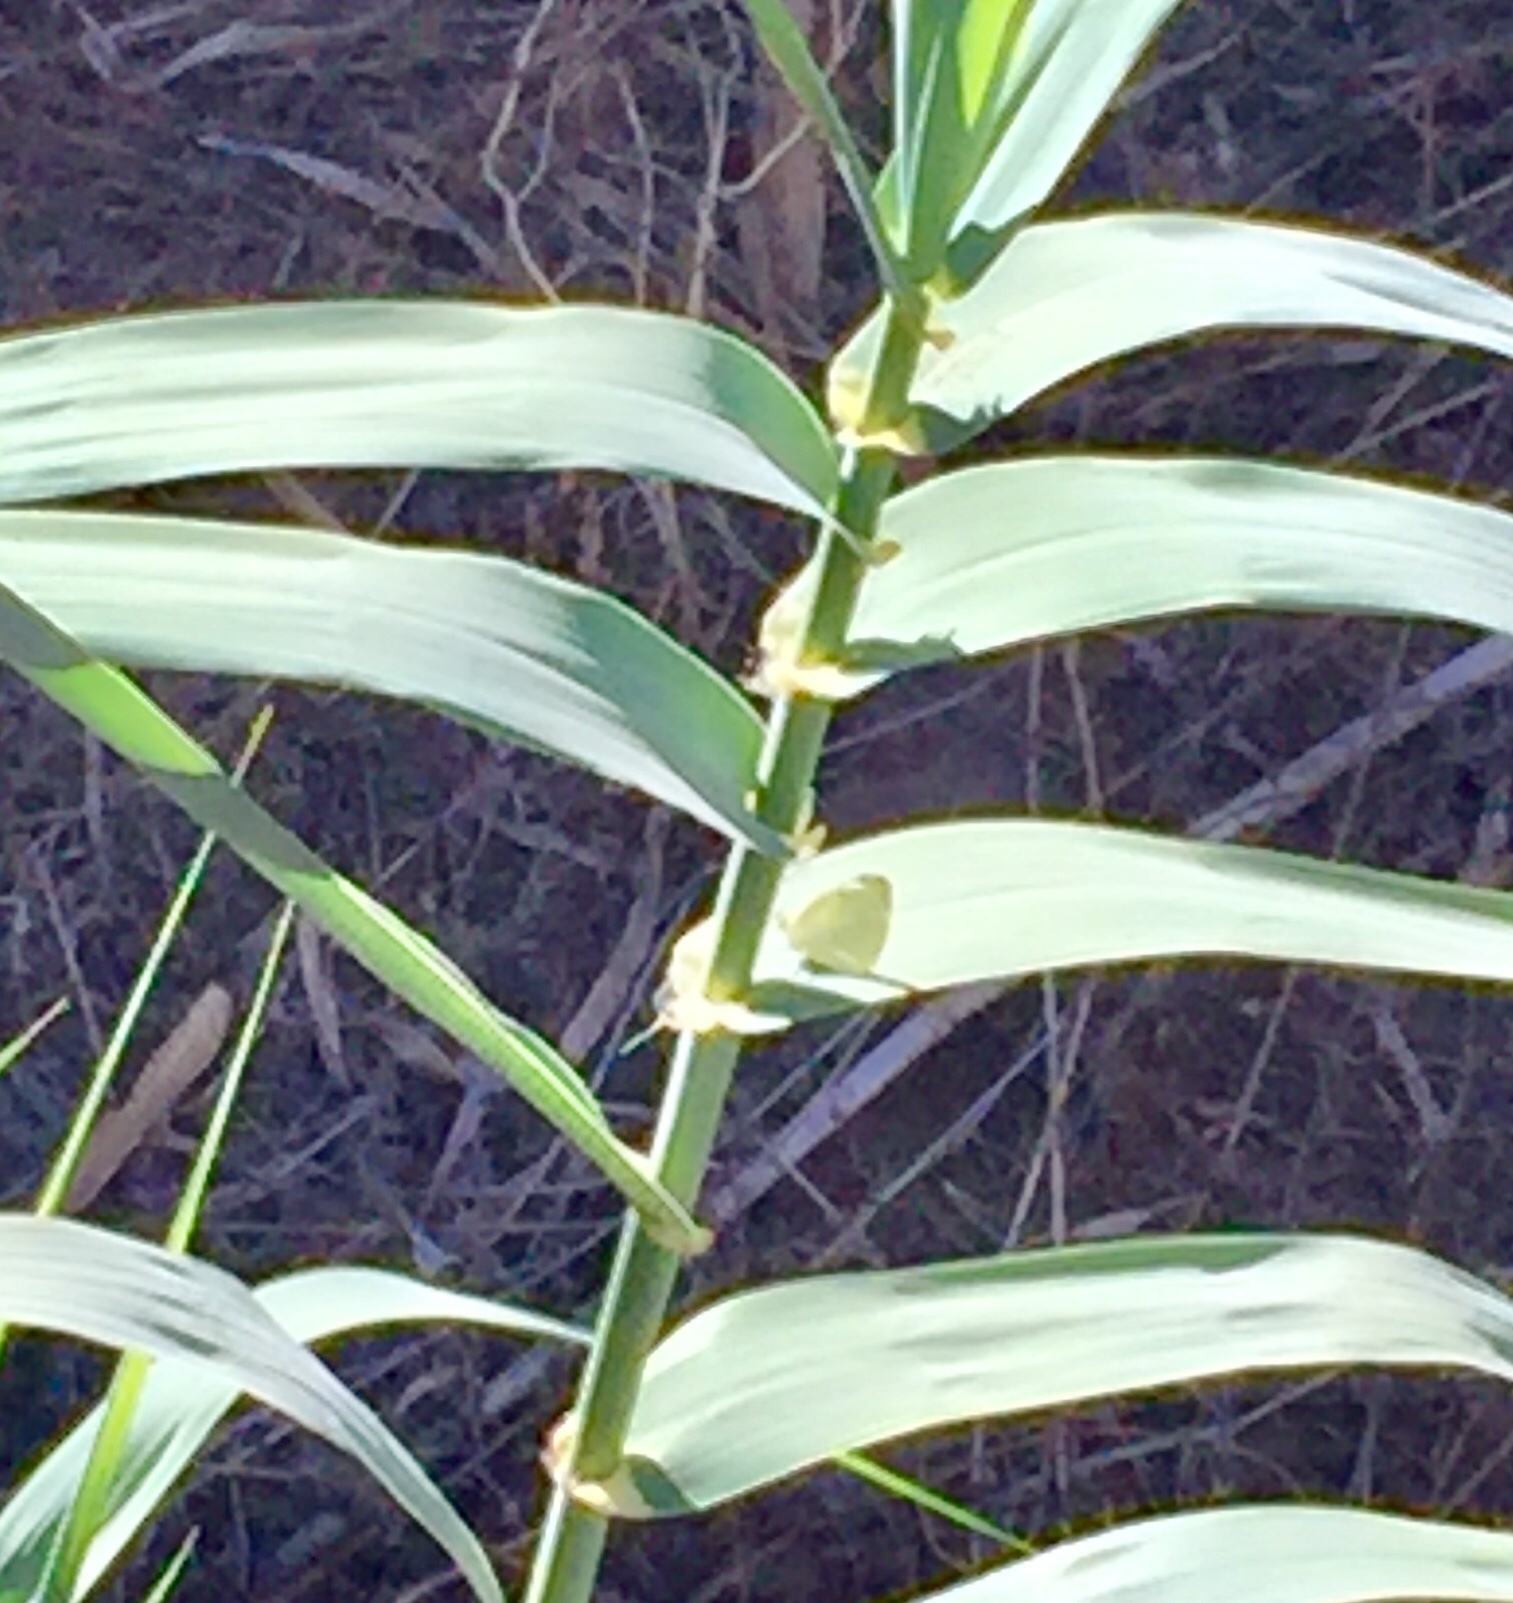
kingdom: Animalia
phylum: Arthropoda
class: Insecta
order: Lepidoptera
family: Pieridae
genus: Pieris
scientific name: Pieris rapae
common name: Small white
